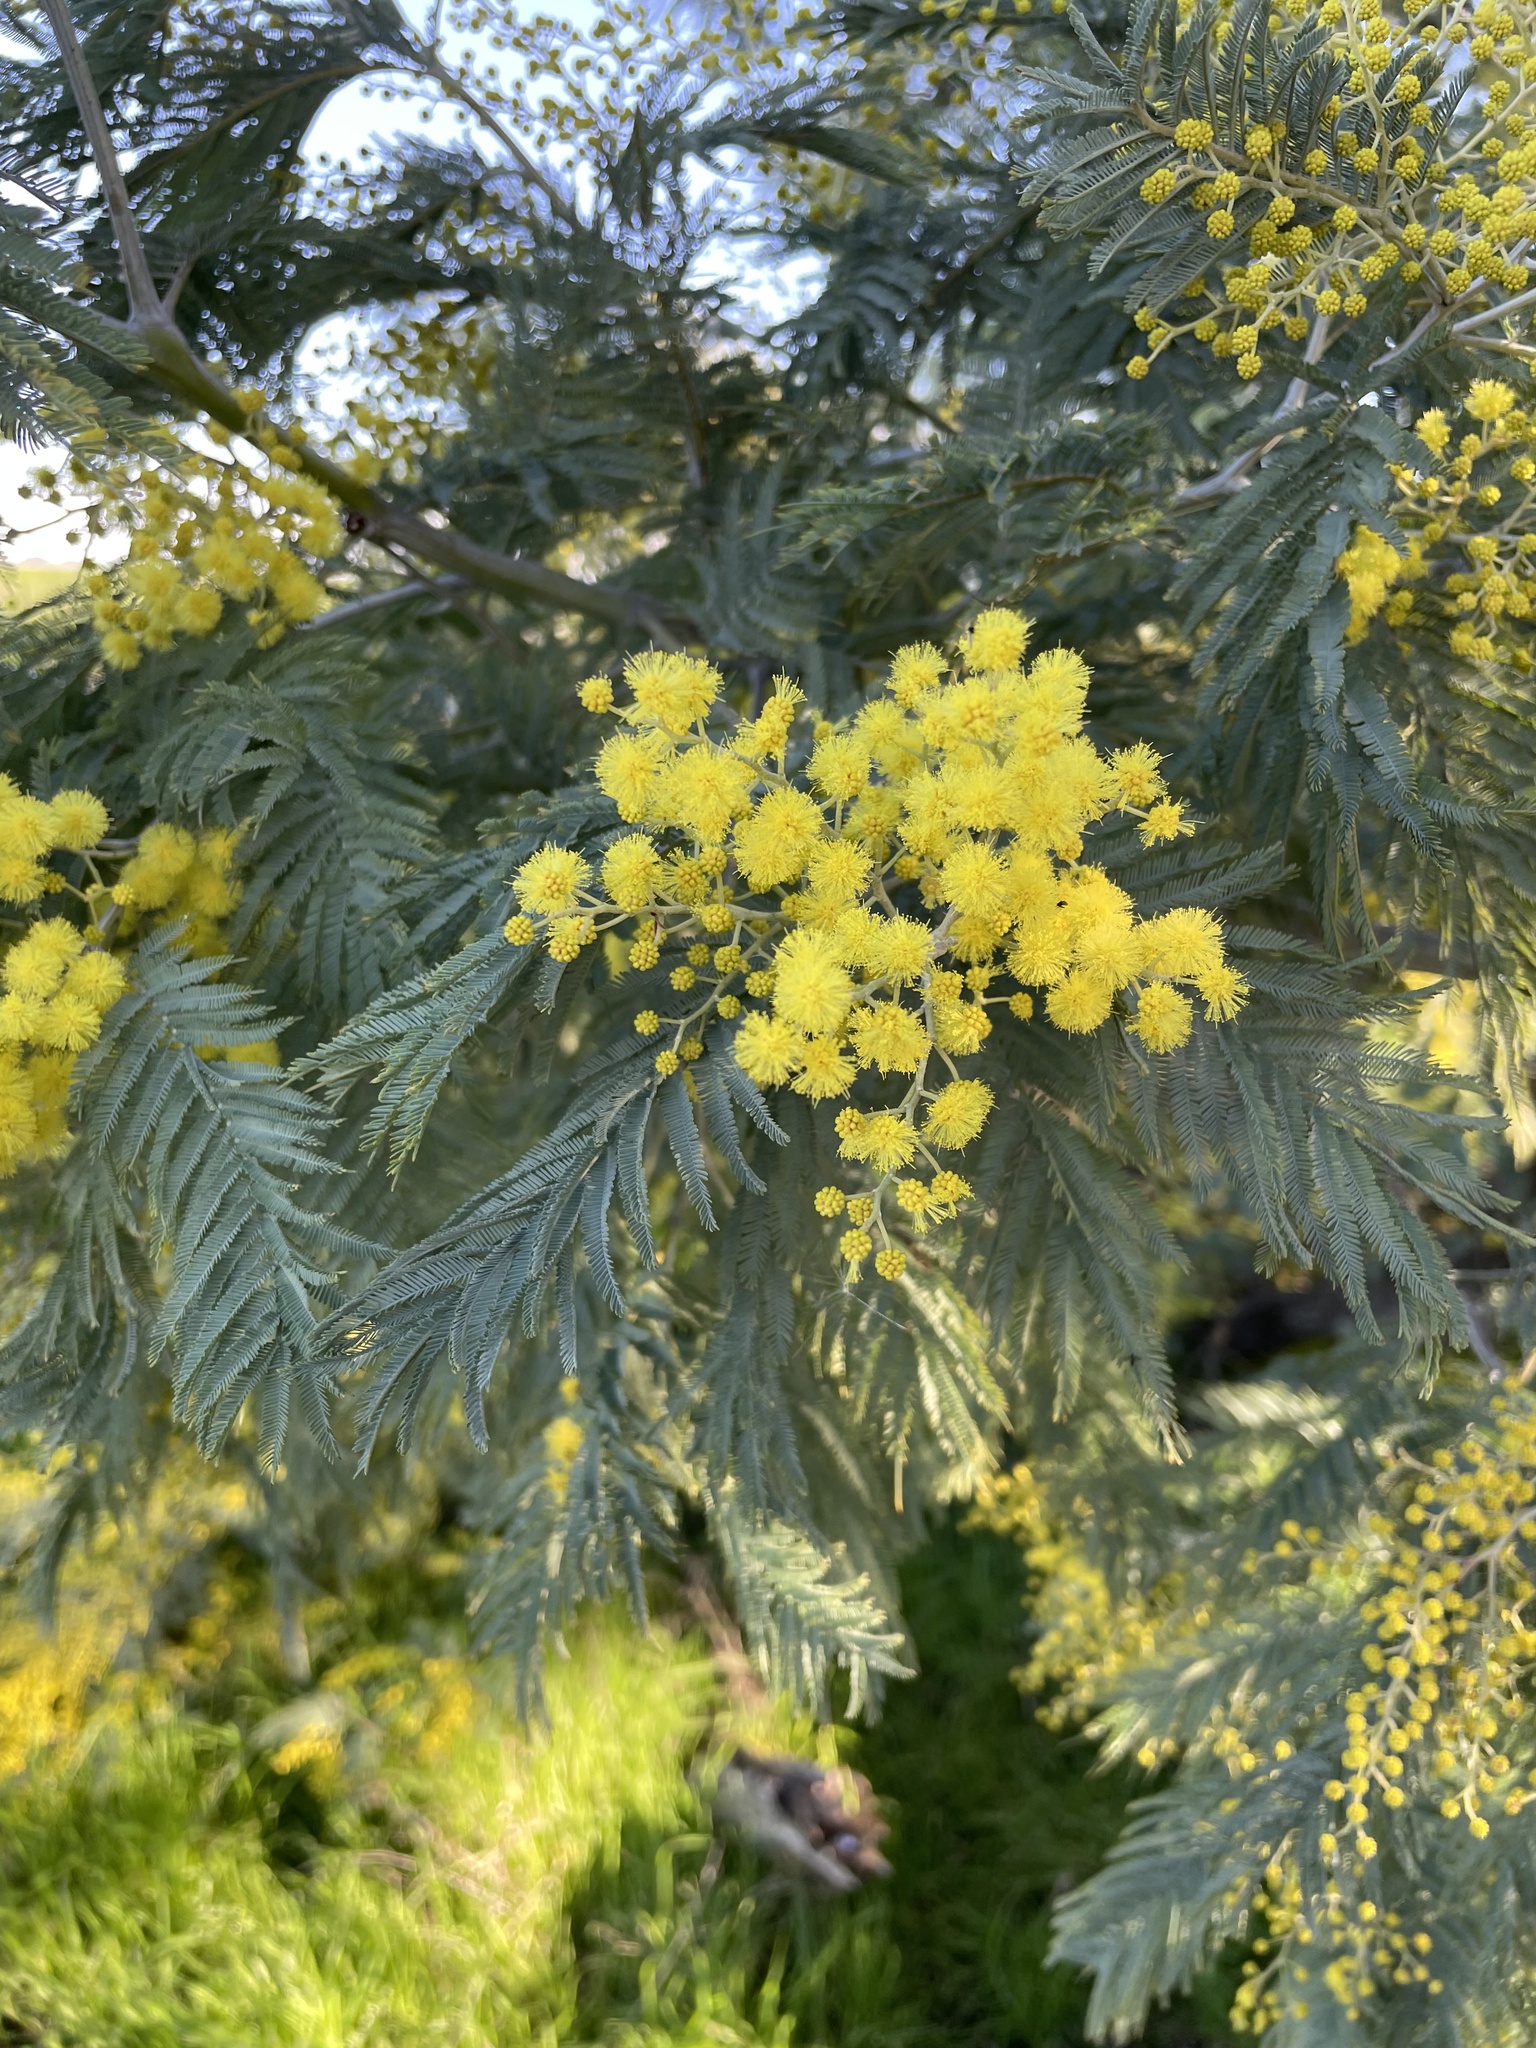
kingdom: Plantae
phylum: Tracheophyta
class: Magnoliopsida
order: Fabales
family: Fabaceae
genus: Acacia
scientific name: Acacia dealbata
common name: Silver wattle
